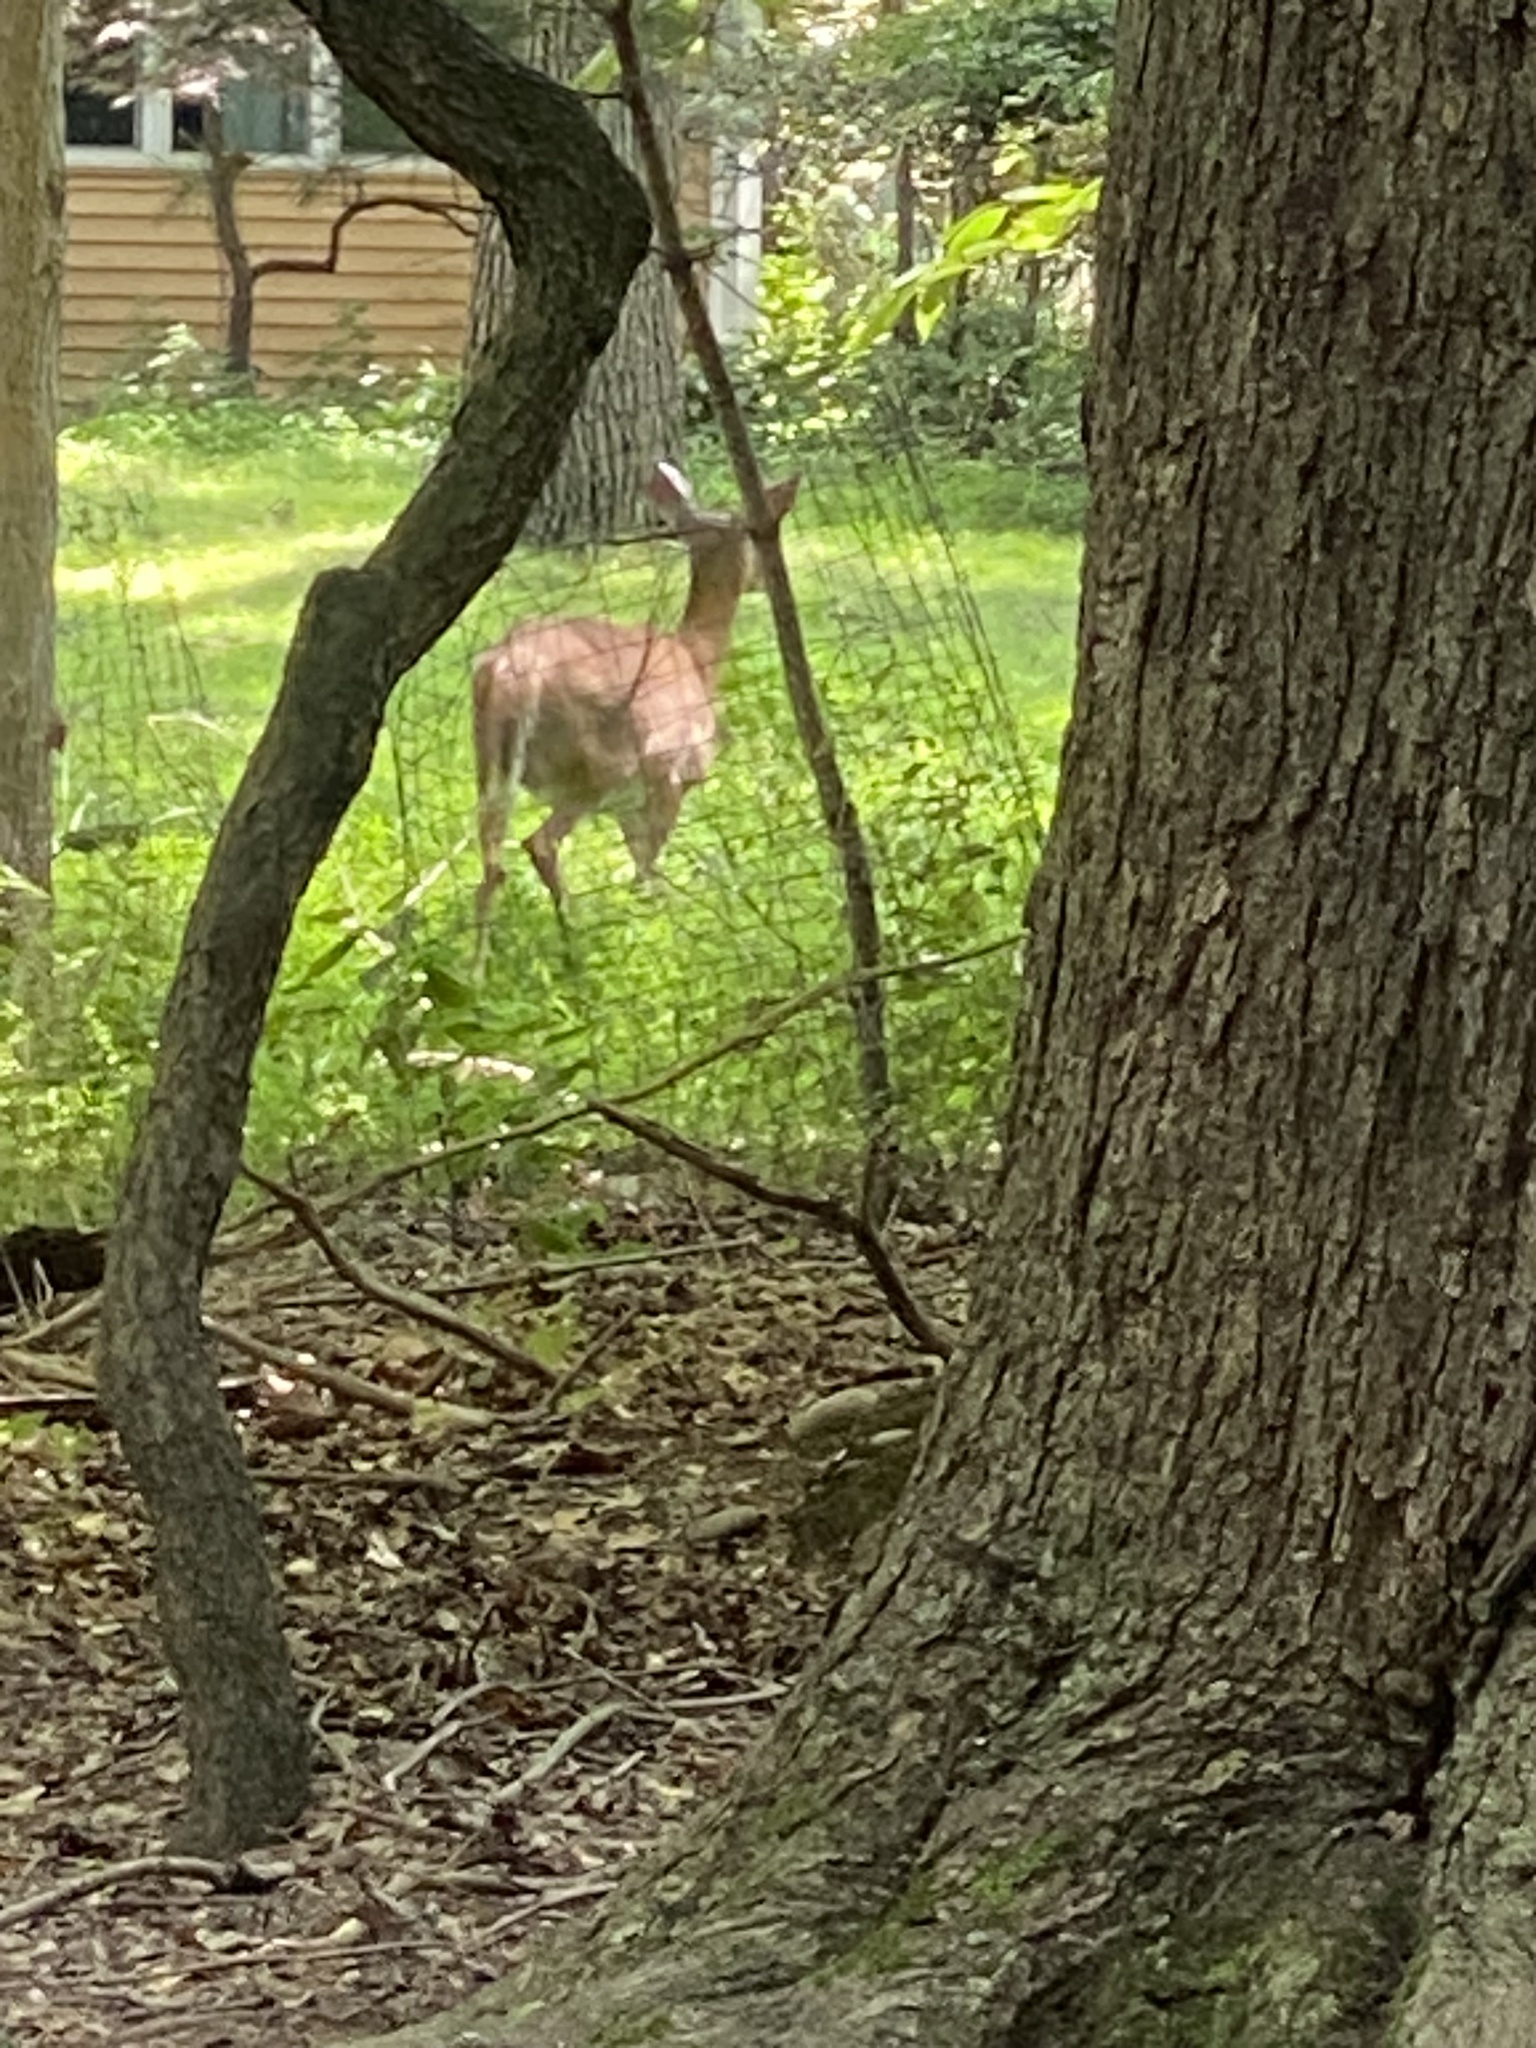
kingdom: Animalia
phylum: Chordata
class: Mammalia
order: Artiodactyla
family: Cervidae
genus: Odocoileus
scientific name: Odocoileus virginianus
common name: White-tailed deer
